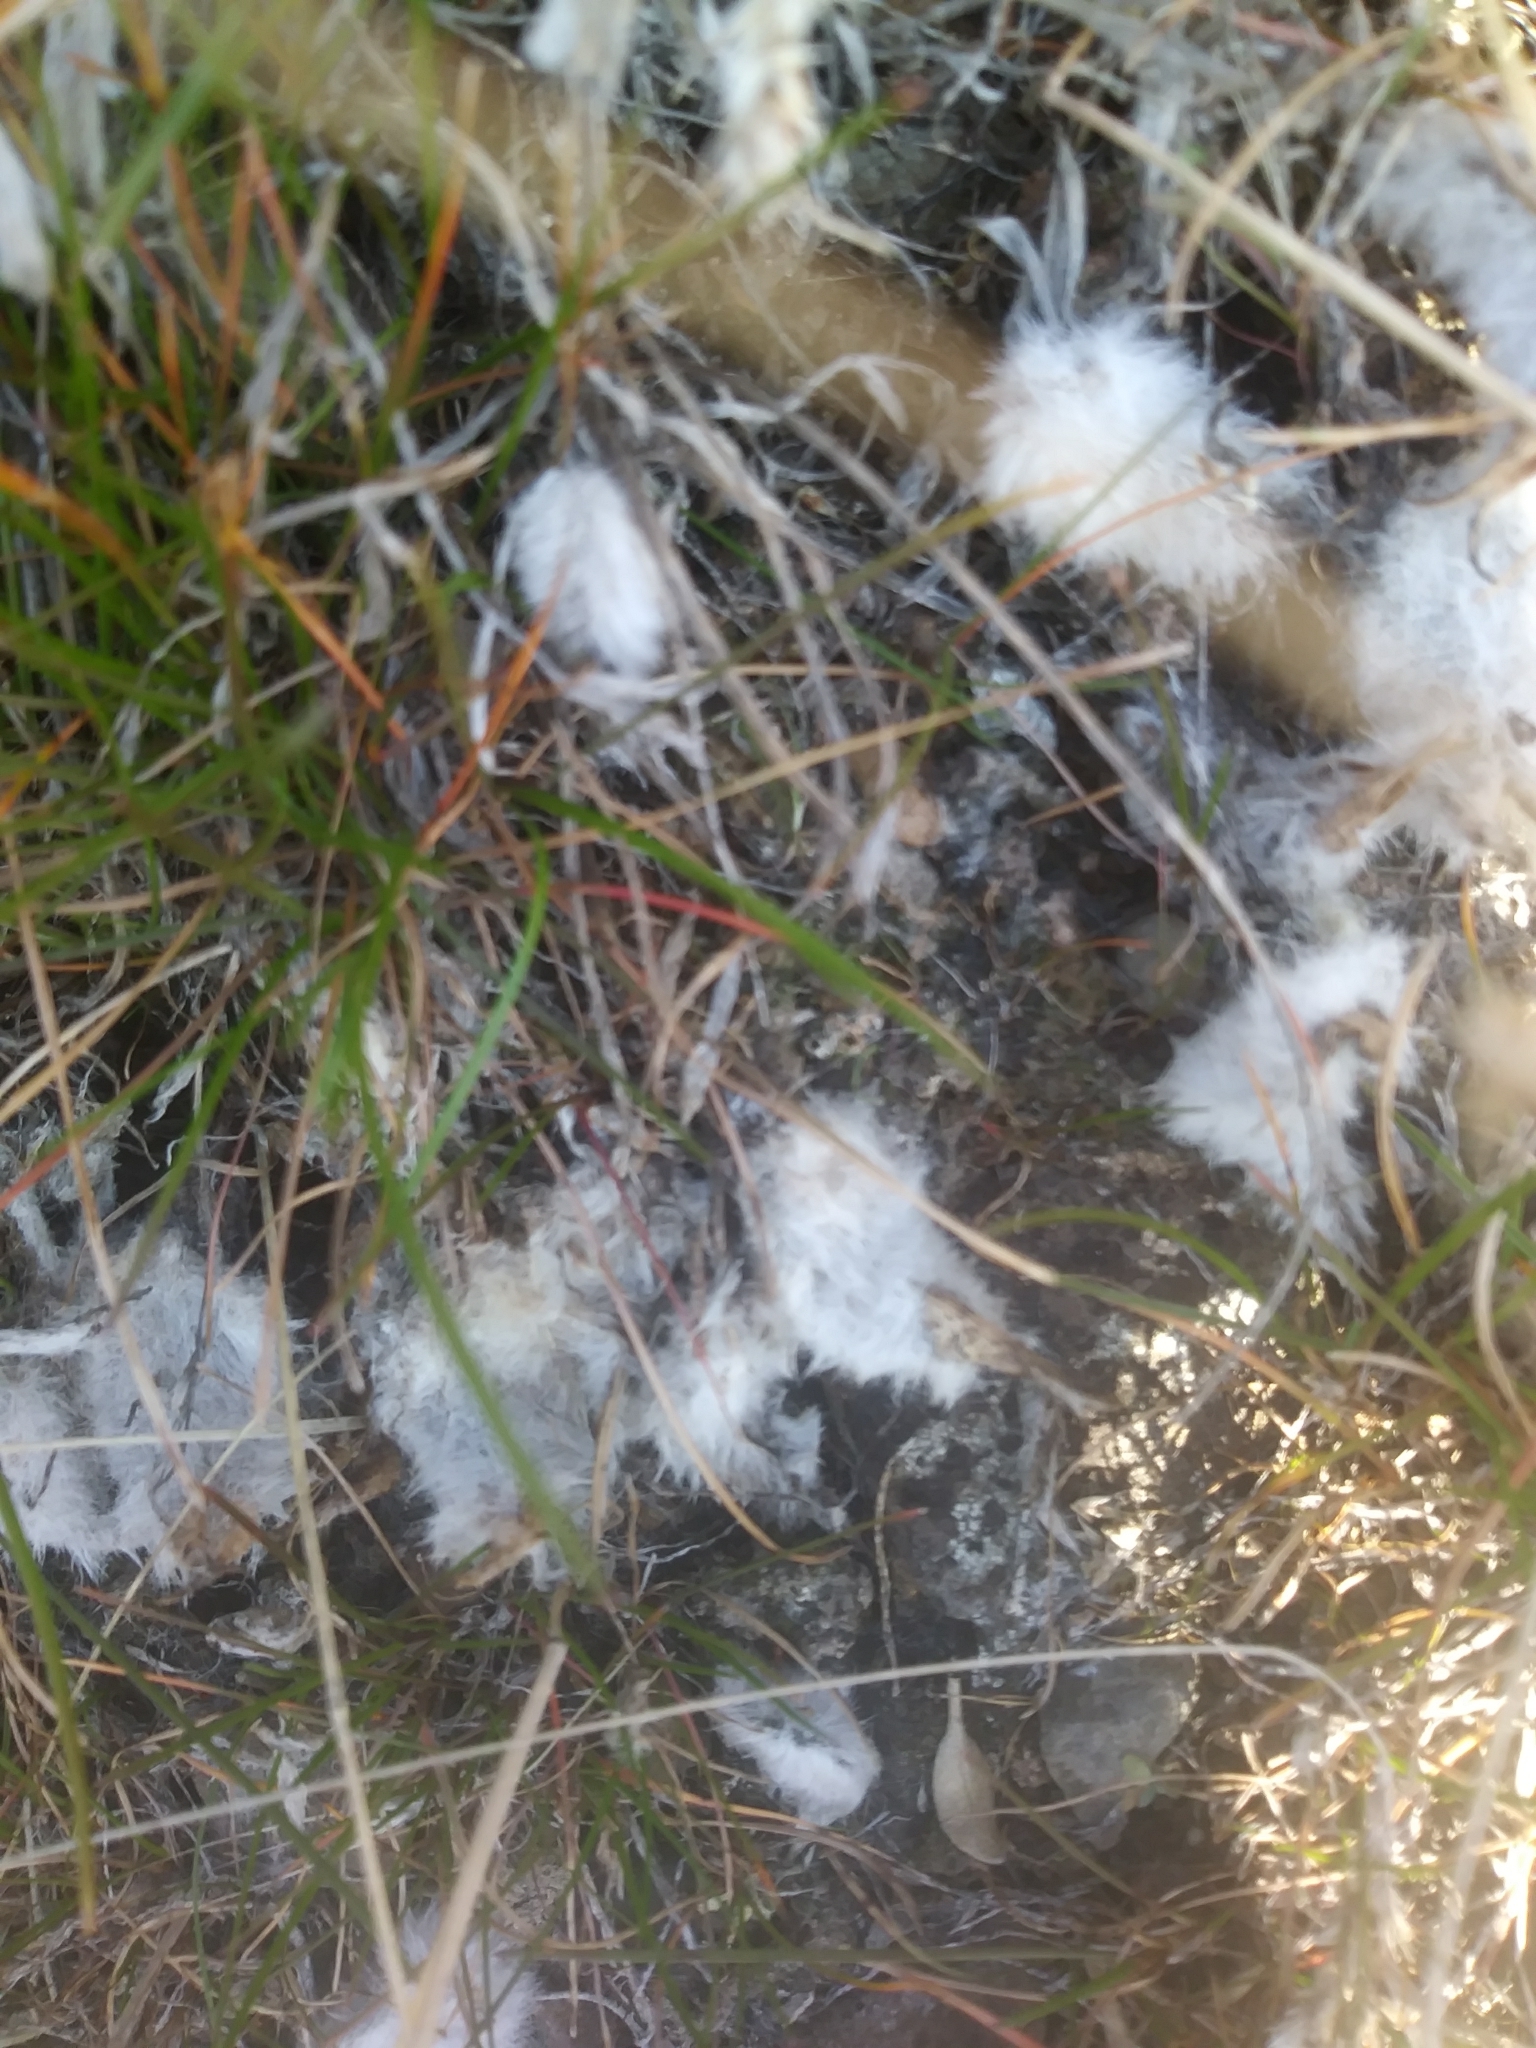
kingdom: Plantae
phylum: Tracheophyta
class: Magnoliopsida
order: Fabales
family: Fabaceae
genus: Astragalus
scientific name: Astragalus purshii
